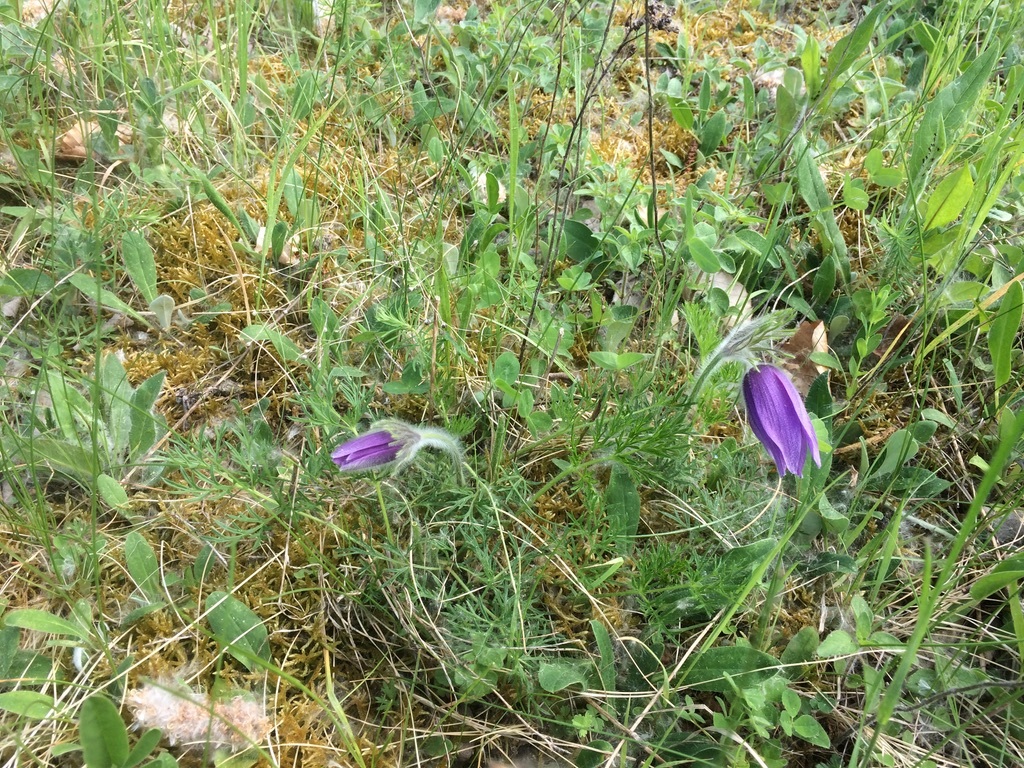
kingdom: Plantae
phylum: Tracheophyta
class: Magnoliopsida
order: Ranunculales
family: Ranunculaceae
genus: Pulsatilla
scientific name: Pulsatilla vulgaris
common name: Pasqueflower
